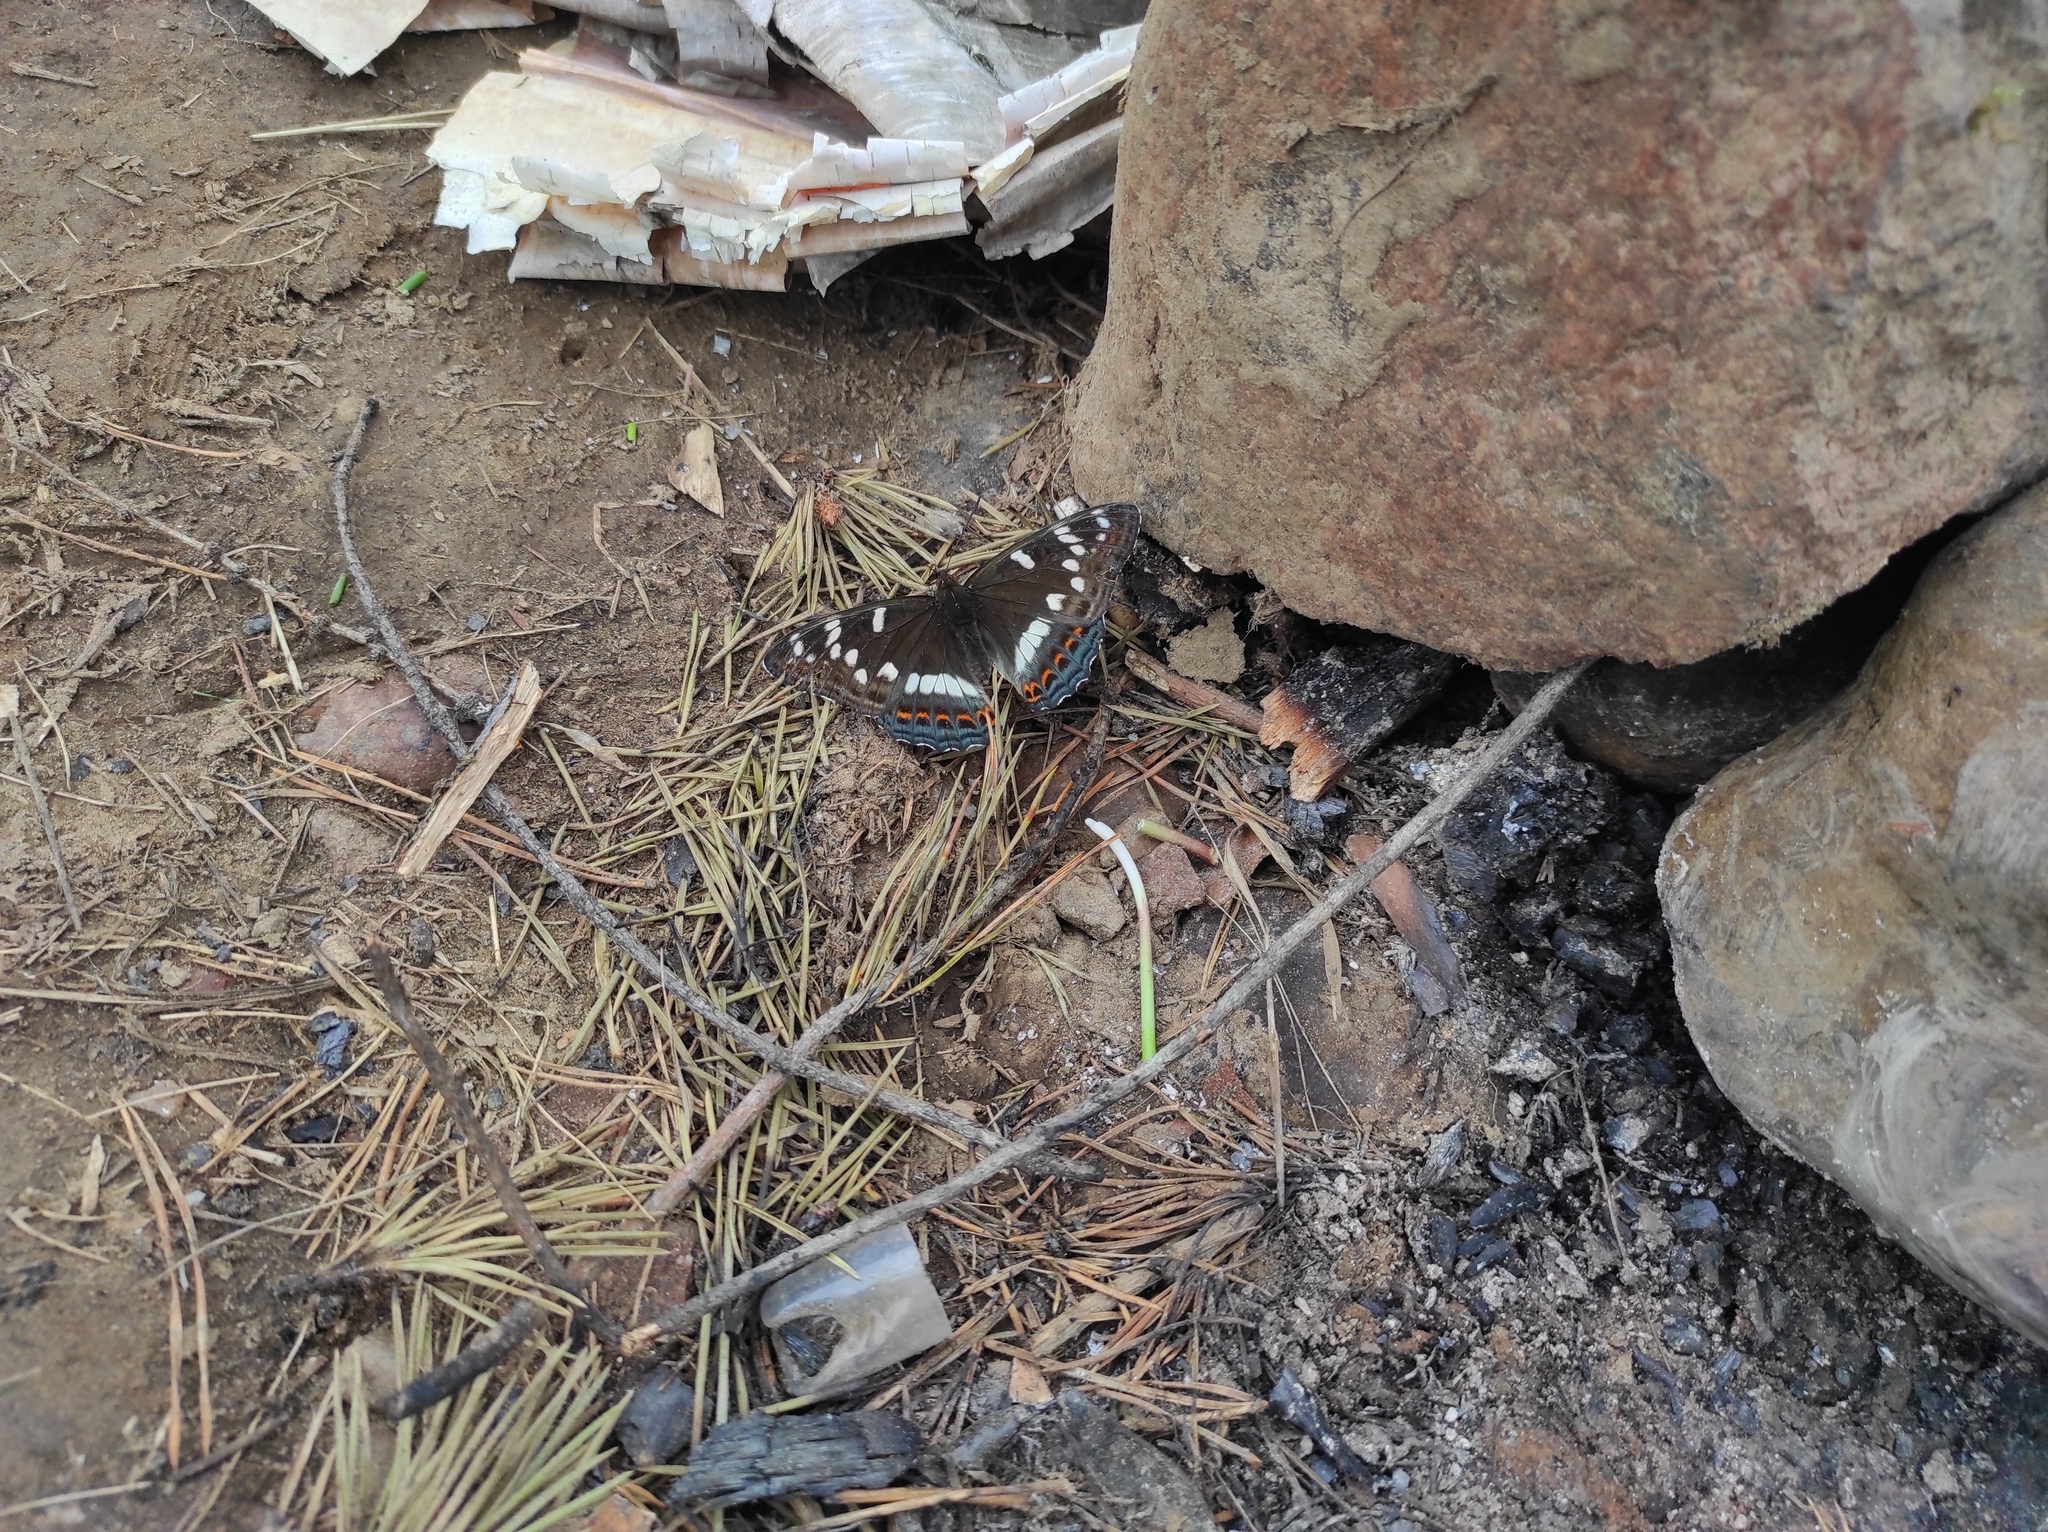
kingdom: Animalia
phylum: Arthropoda
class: Insecta
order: Lepidoptera
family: Nymphalidae
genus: Limenitis
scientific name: Limenitis populi
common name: Poplar admiral
